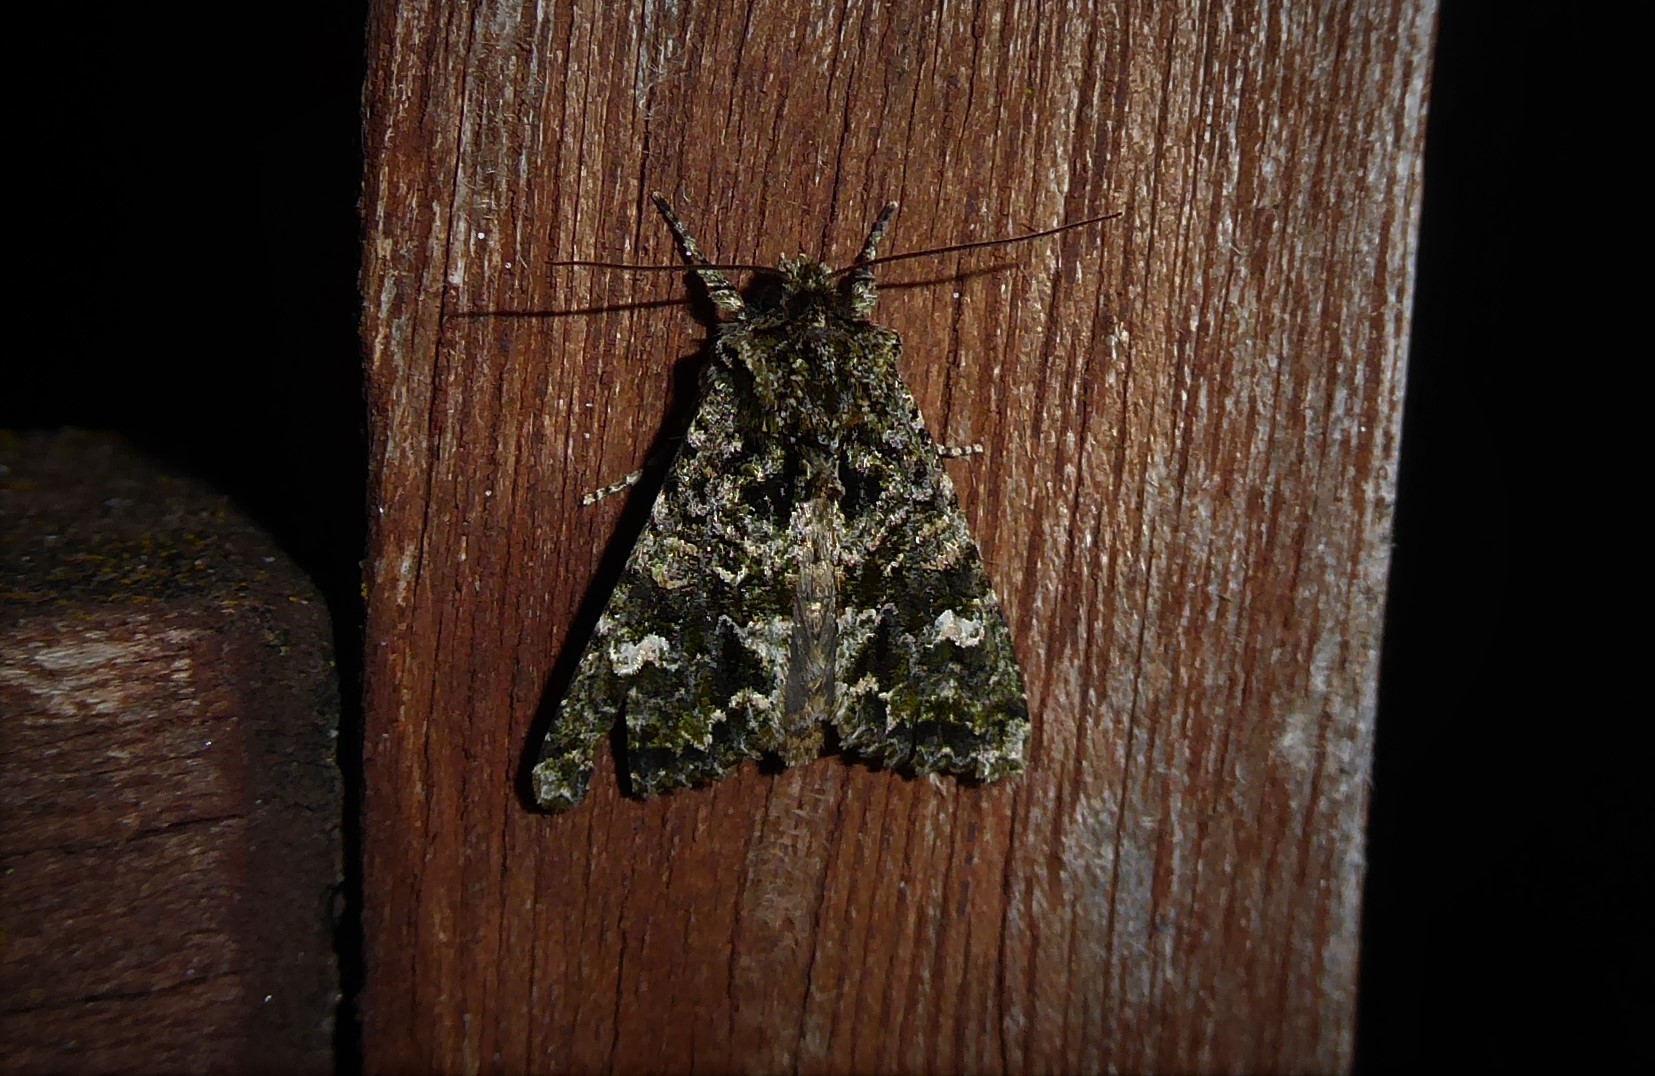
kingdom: Animalia
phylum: Arthropoda
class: Insecta
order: Lepidoptera
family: Noctuidae
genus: Ichneutica
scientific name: Ichneutica
